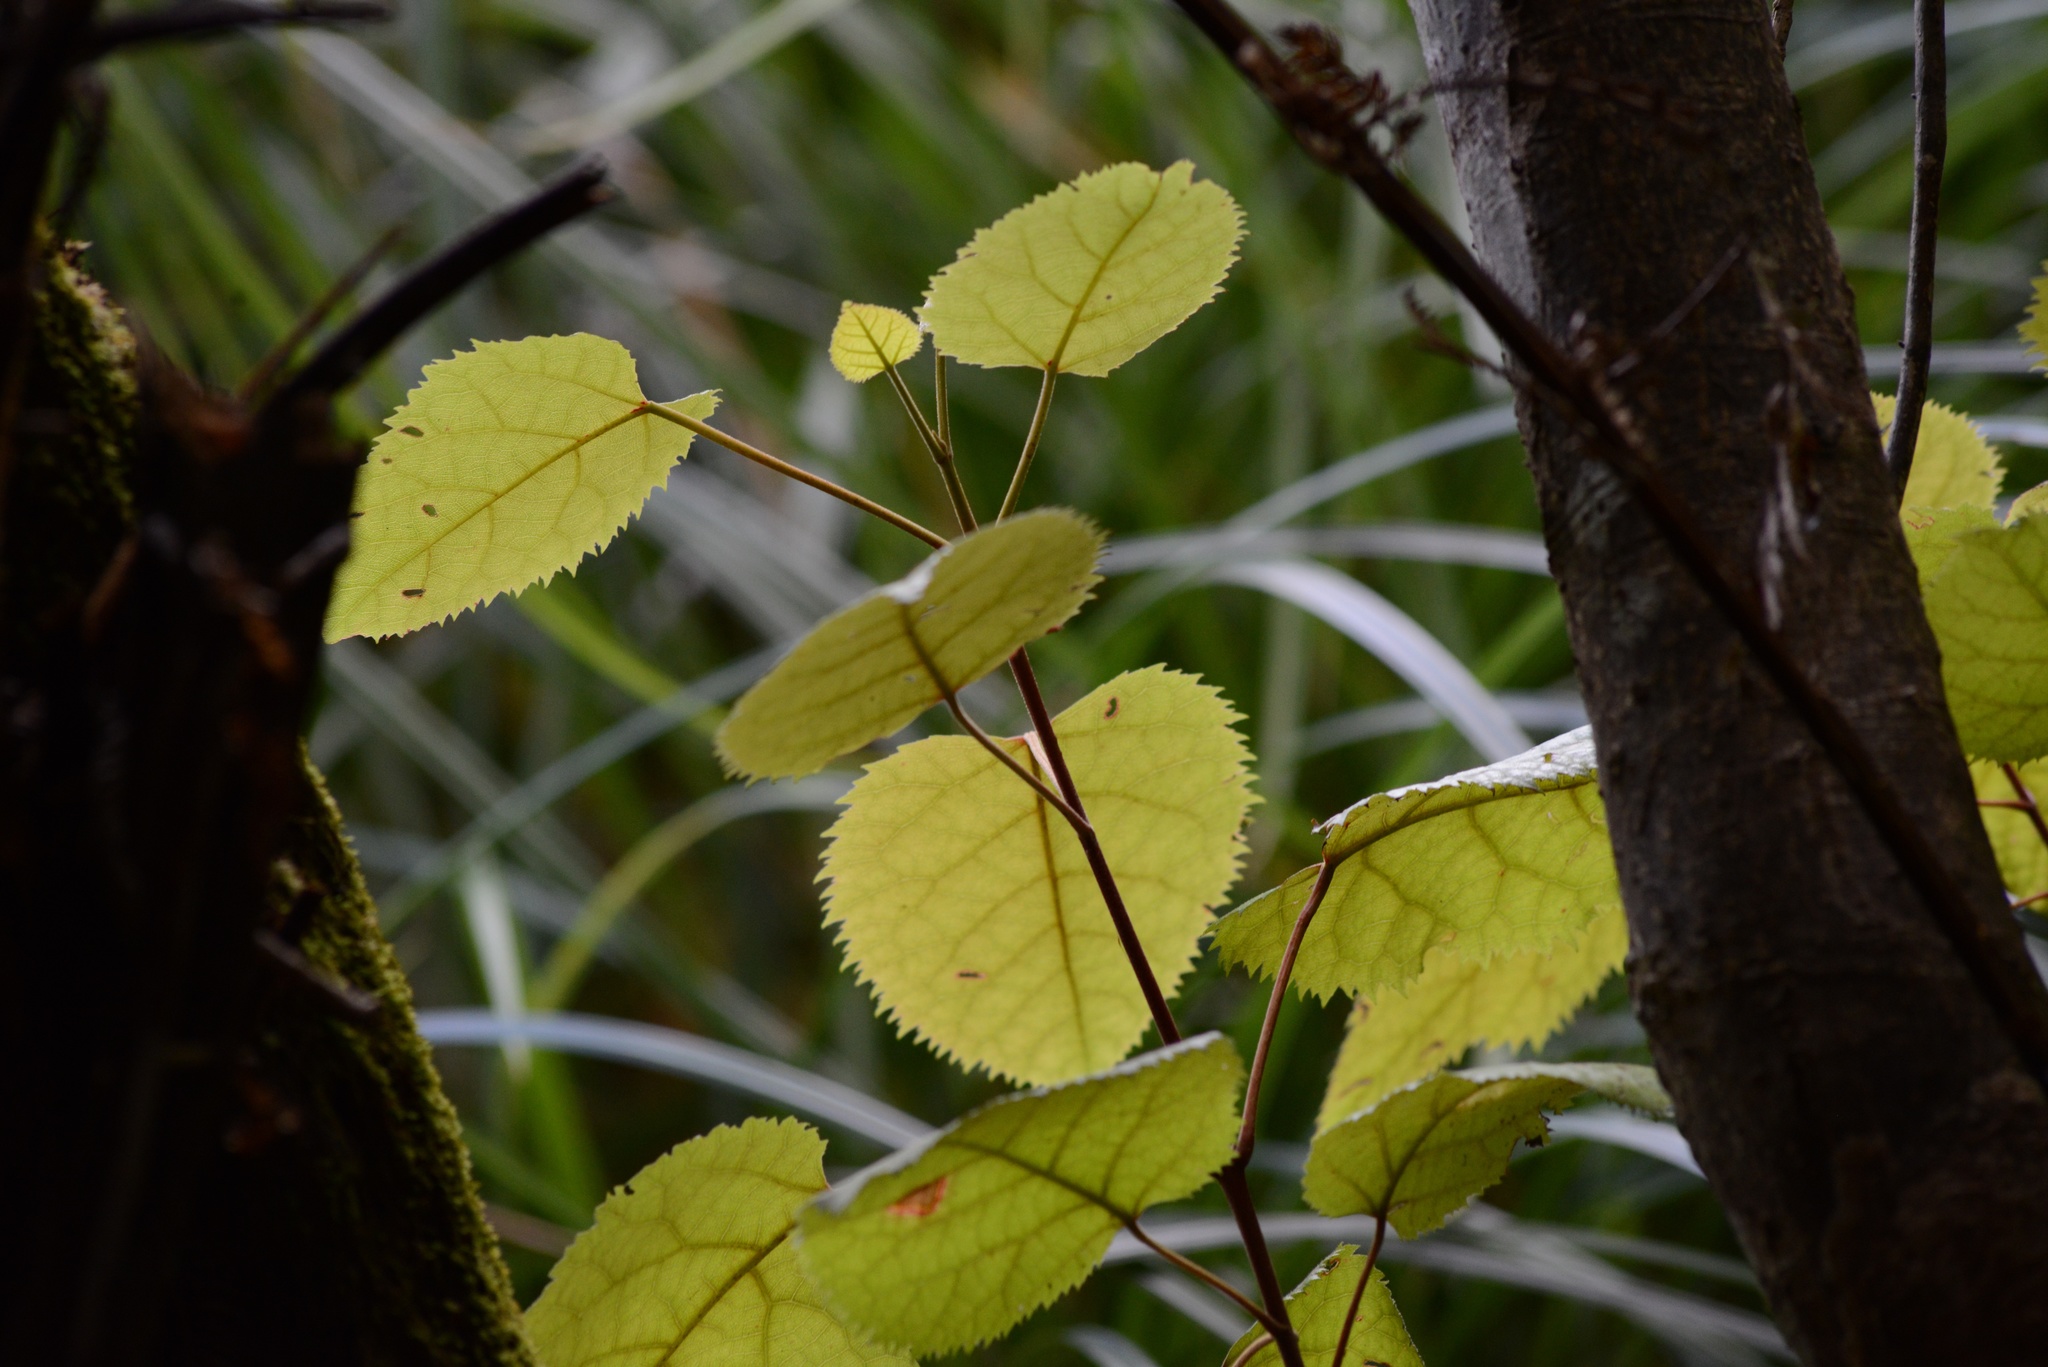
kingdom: Plantae
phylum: Tracheophyta
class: Magnoliopsida
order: Oxalidales
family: Elaeocarpaceae
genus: Aristotelia
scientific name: Aristotelia serrata
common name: New zealand wineberry
